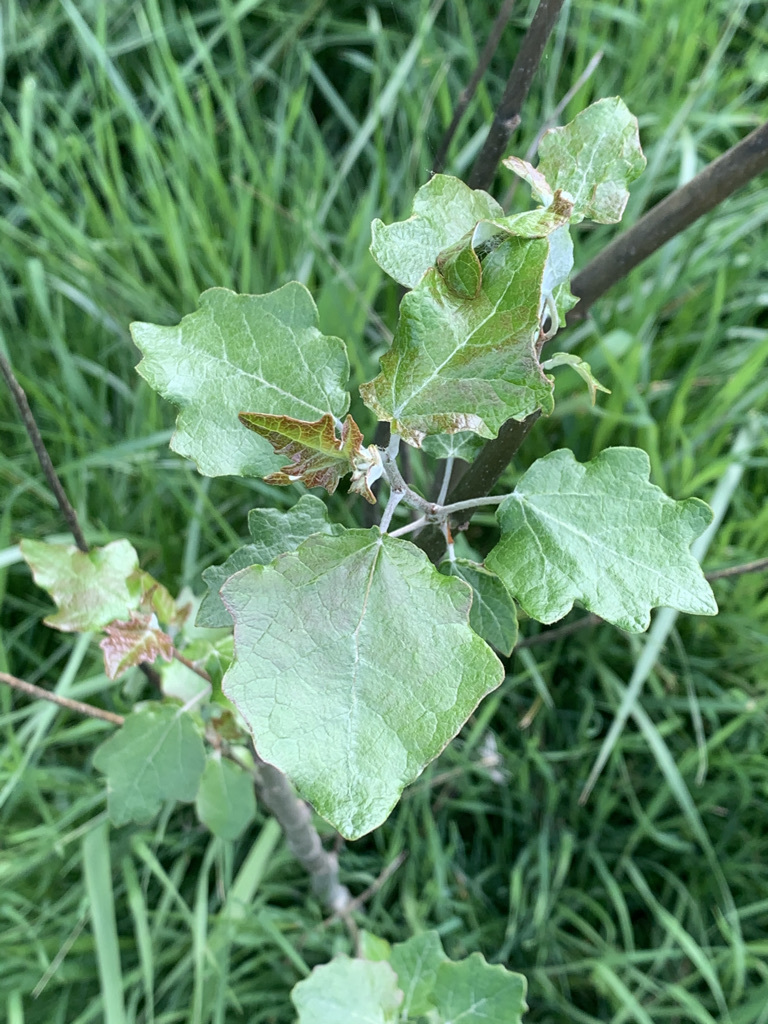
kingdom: Plantae
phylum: Tracheophyta
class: Magnoliopsida
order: Malpighiales
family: Salicaceae
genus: Populus
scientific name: Populus alba
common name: White poplar
